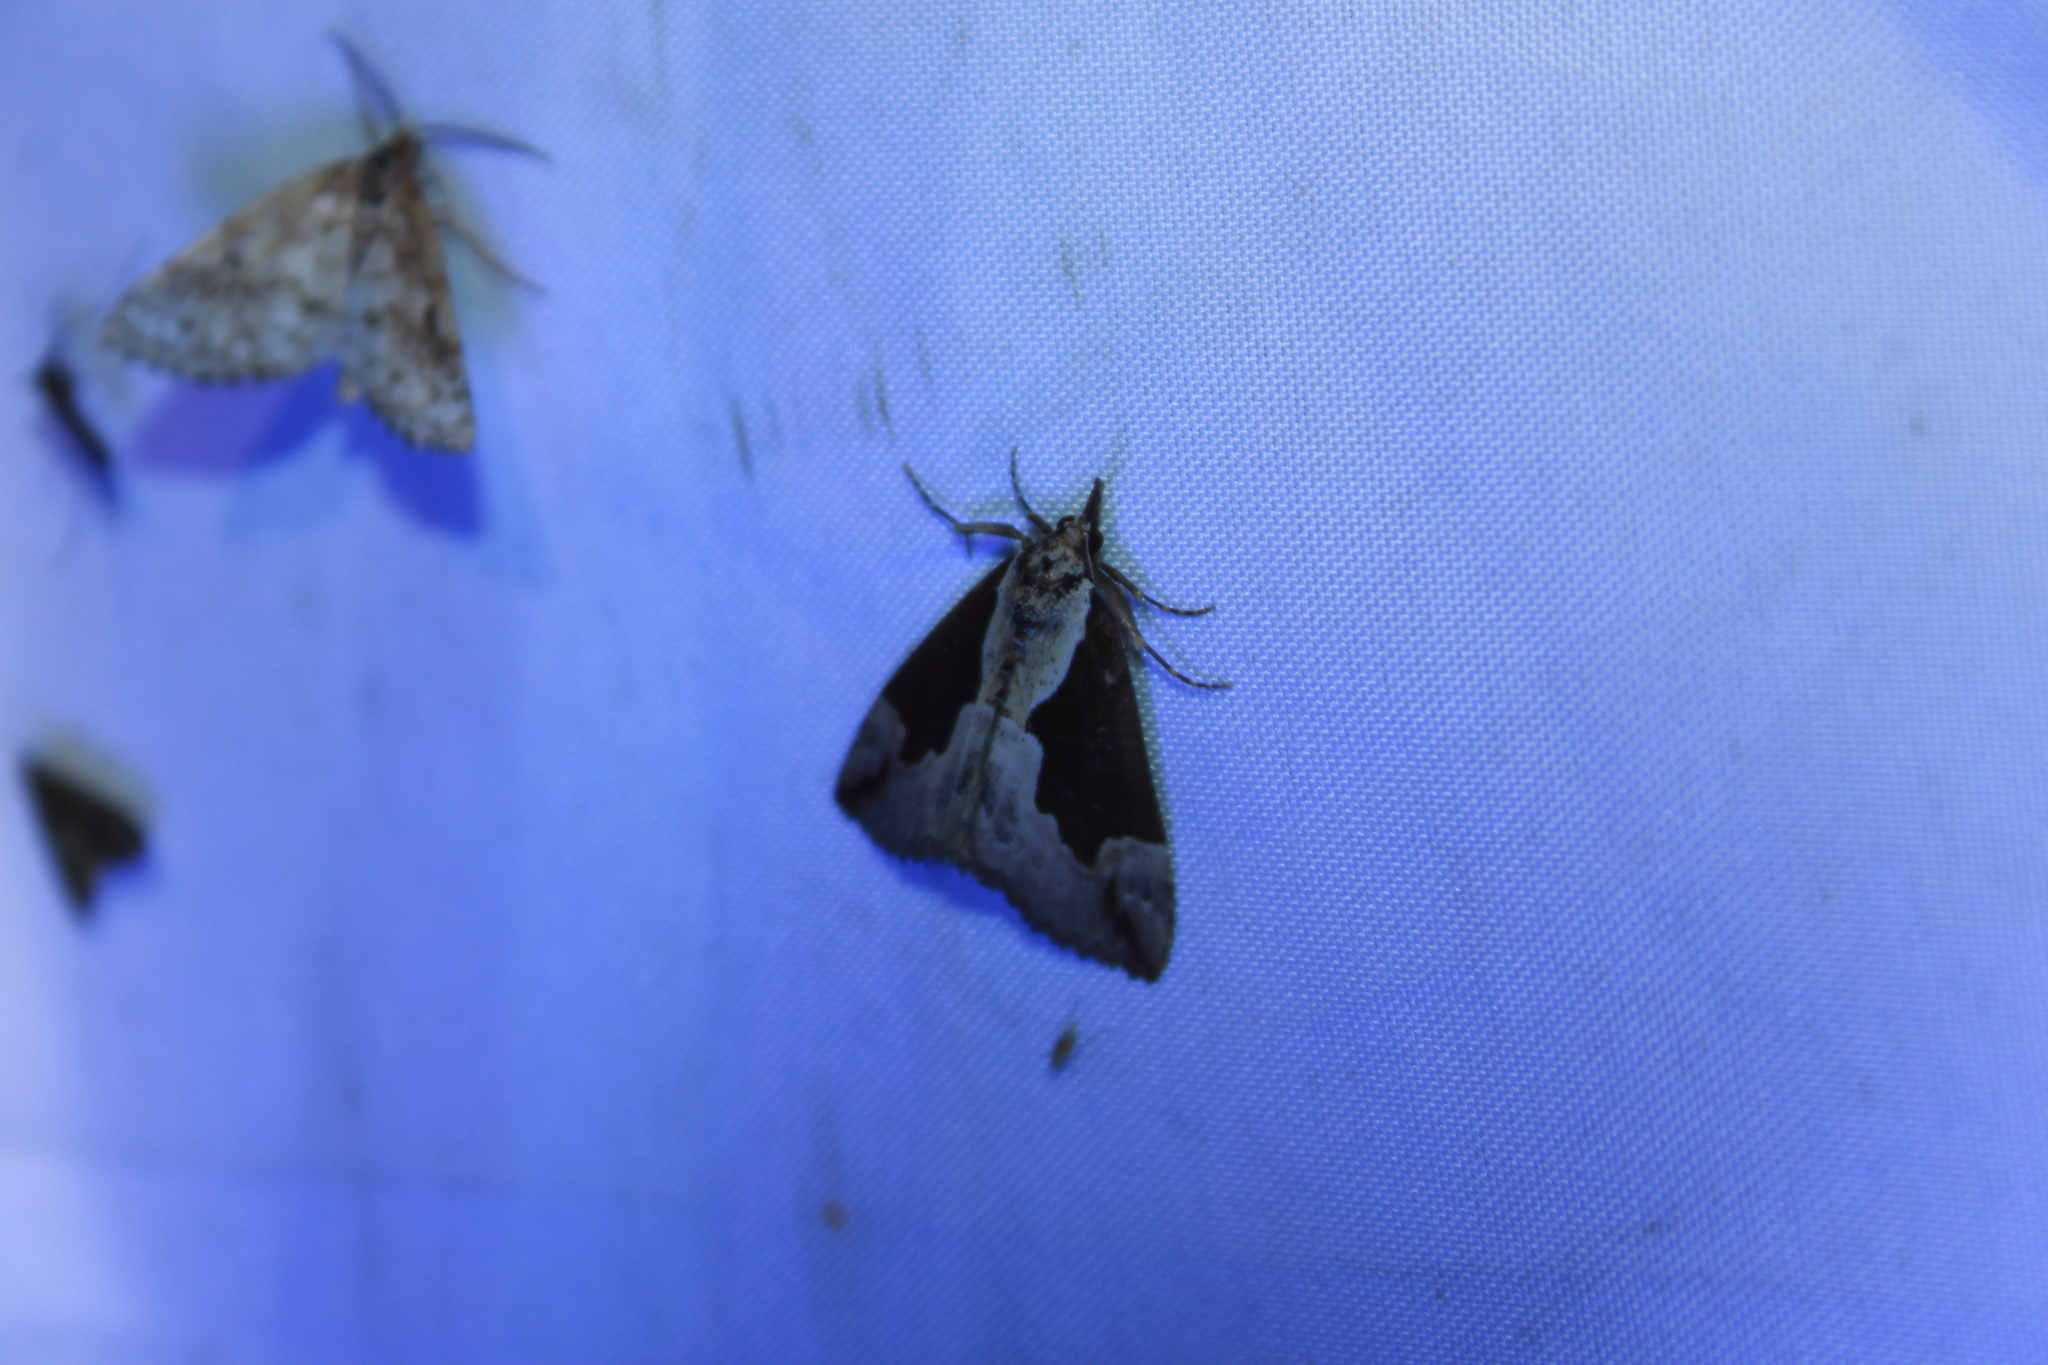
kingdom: Animalia
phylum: Arthropoda
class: Insecta
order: Lepidoptera
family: Erebidae
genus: Hypena
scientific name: Hypena baltimoralis
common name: Baltimore snout
